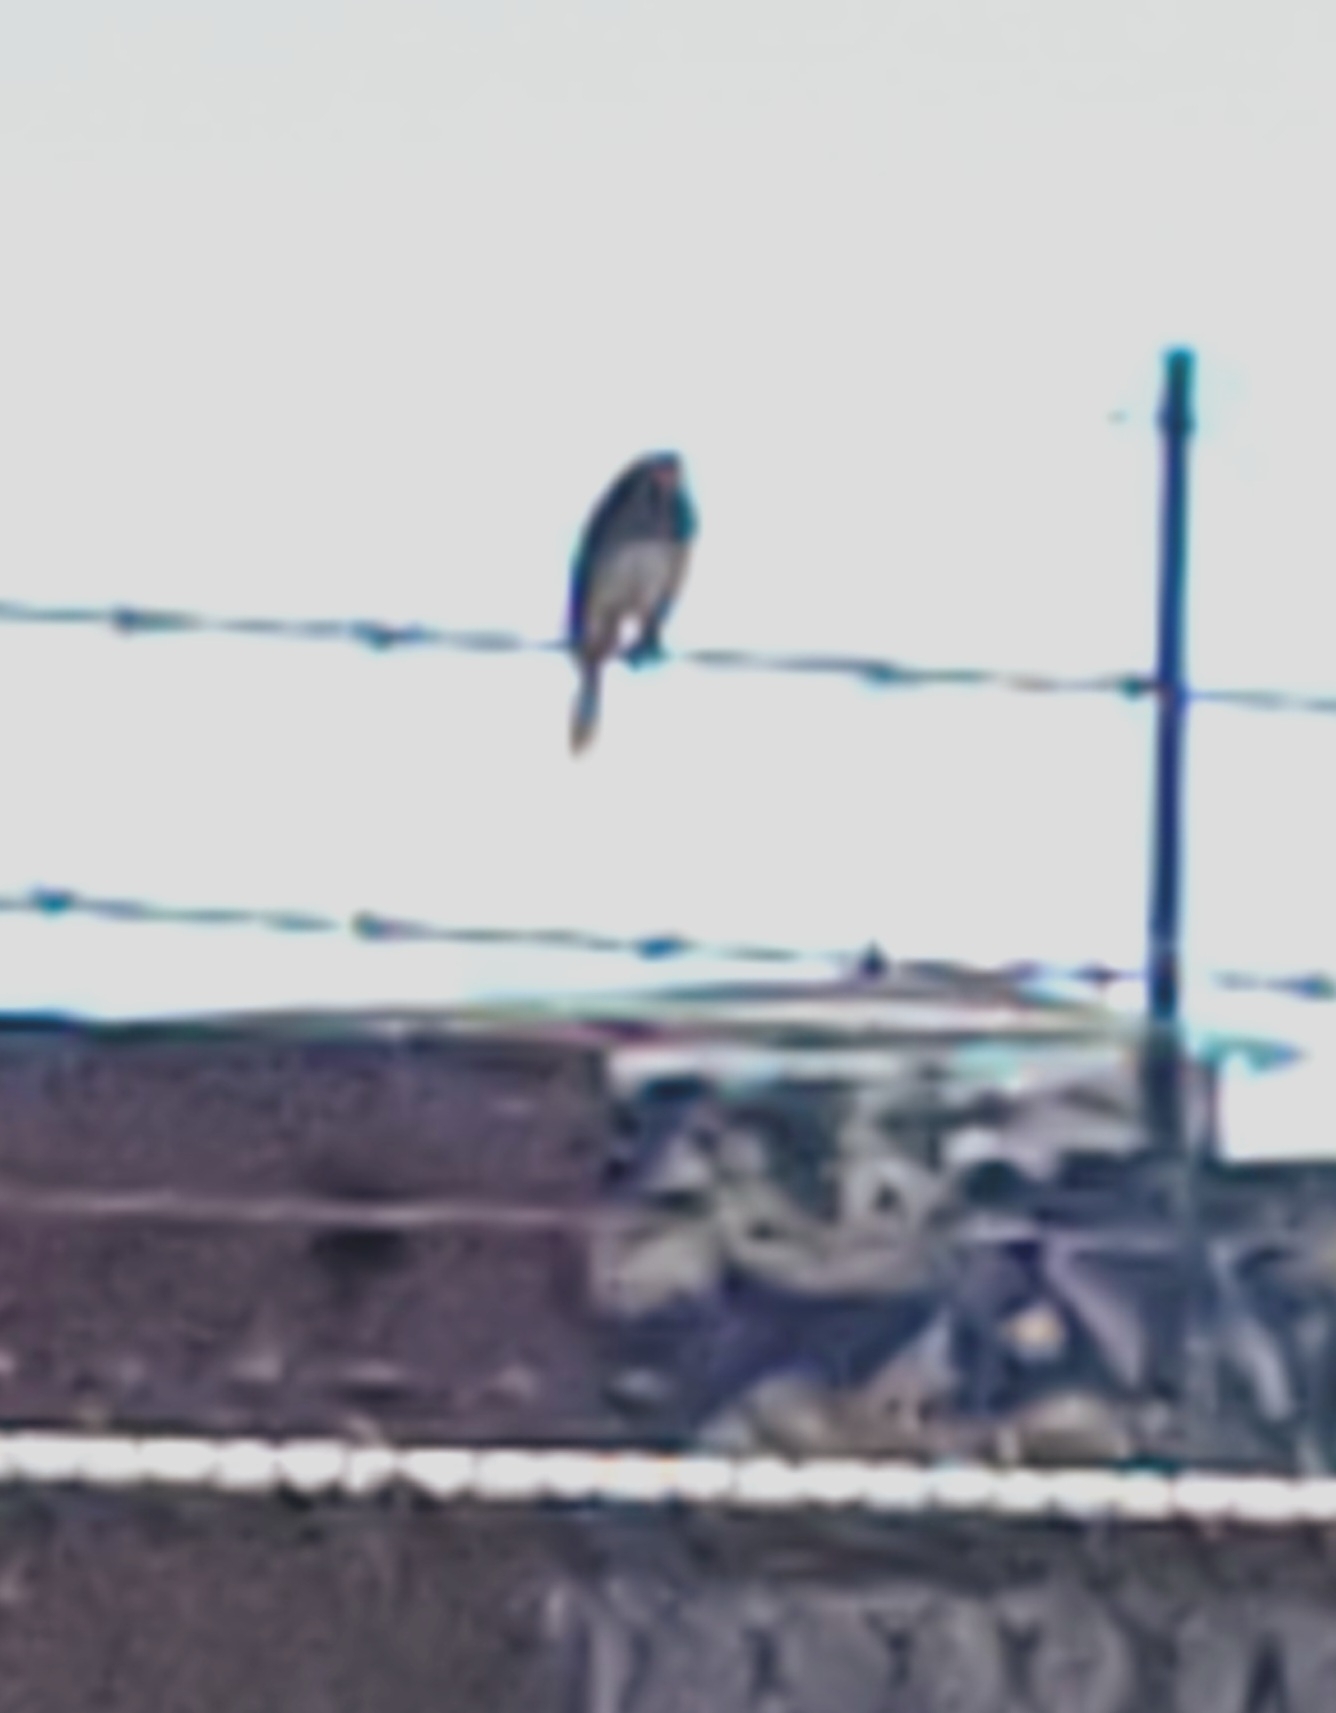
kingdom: Animalia
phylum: Chordata
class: Aves
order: Passeriformes
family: Passerellidae
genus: Junco
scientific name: Junco hyemalis
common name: Dark-eyed junco
